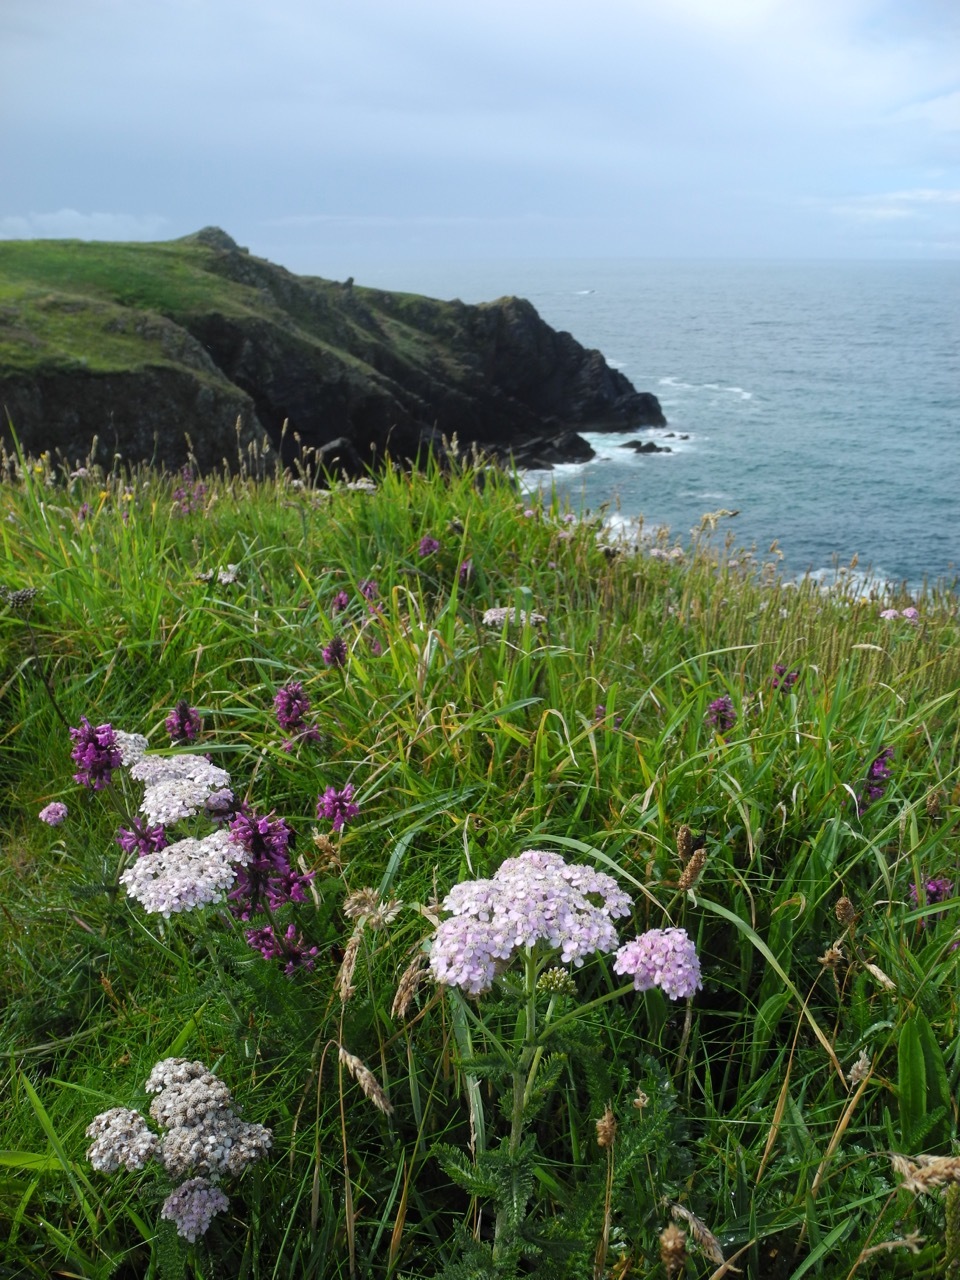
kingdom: Plantae
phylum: Tracheophyta
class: Magnoliopsida
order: Asterales
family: Asteraceae
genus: Achillea
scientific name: Achillea millefolium
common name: Yarrow
